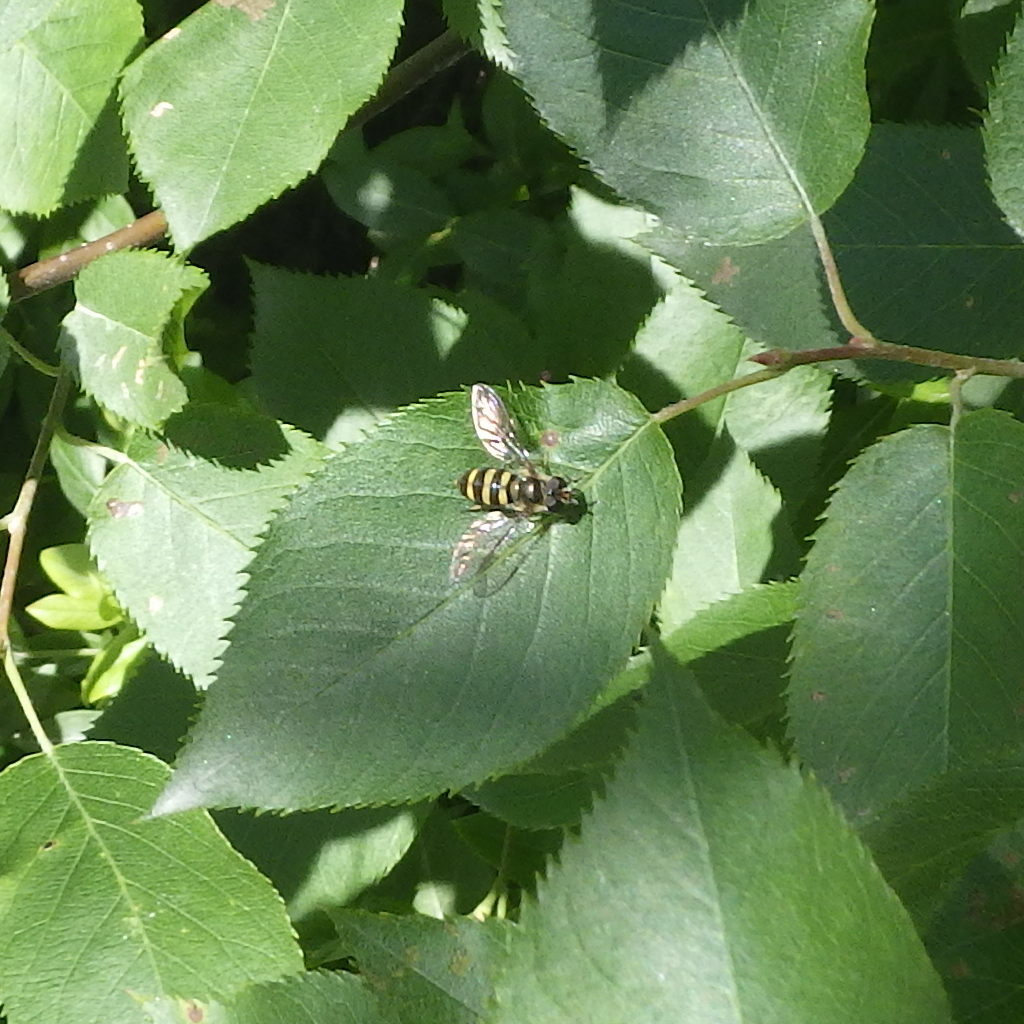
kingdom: Animalia
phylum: Arthropoda
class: Insecta
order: Diptera
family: Syrphidae
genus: Eupeodes
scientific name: Eupeodes
